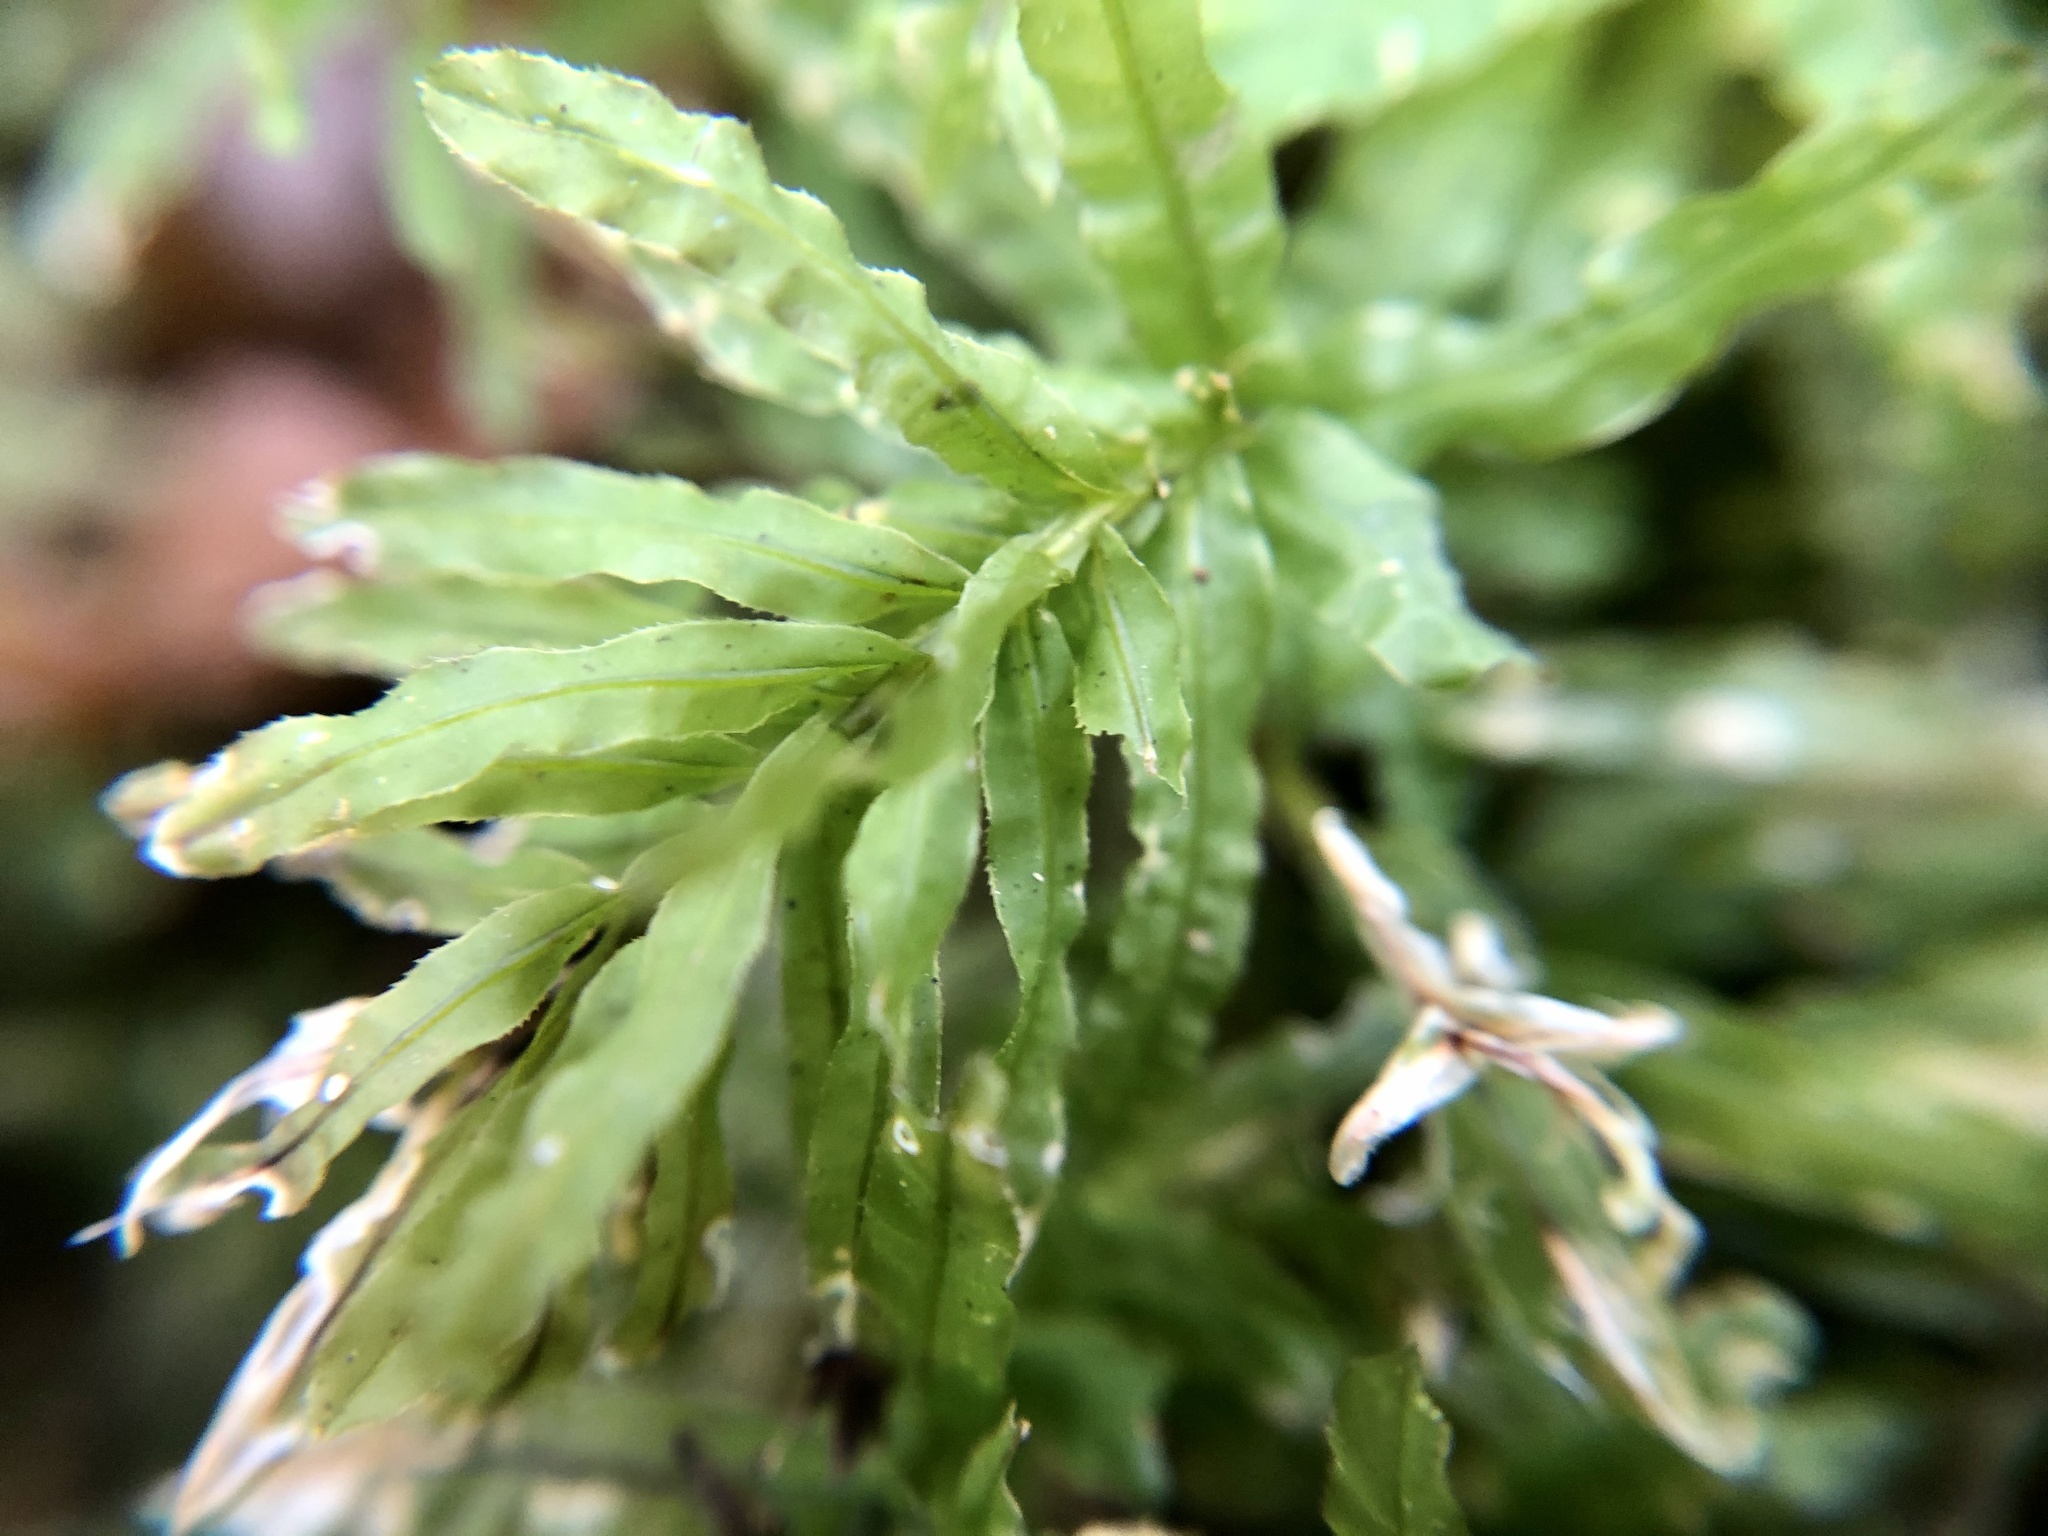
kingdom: Plantae
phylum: Bryophyta
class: Bryopsida
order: Bryales
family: Mniaceae
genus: Plagiomnium
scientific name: Plagiomnium undulatum
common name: Hart's-tongue thyme-moss
